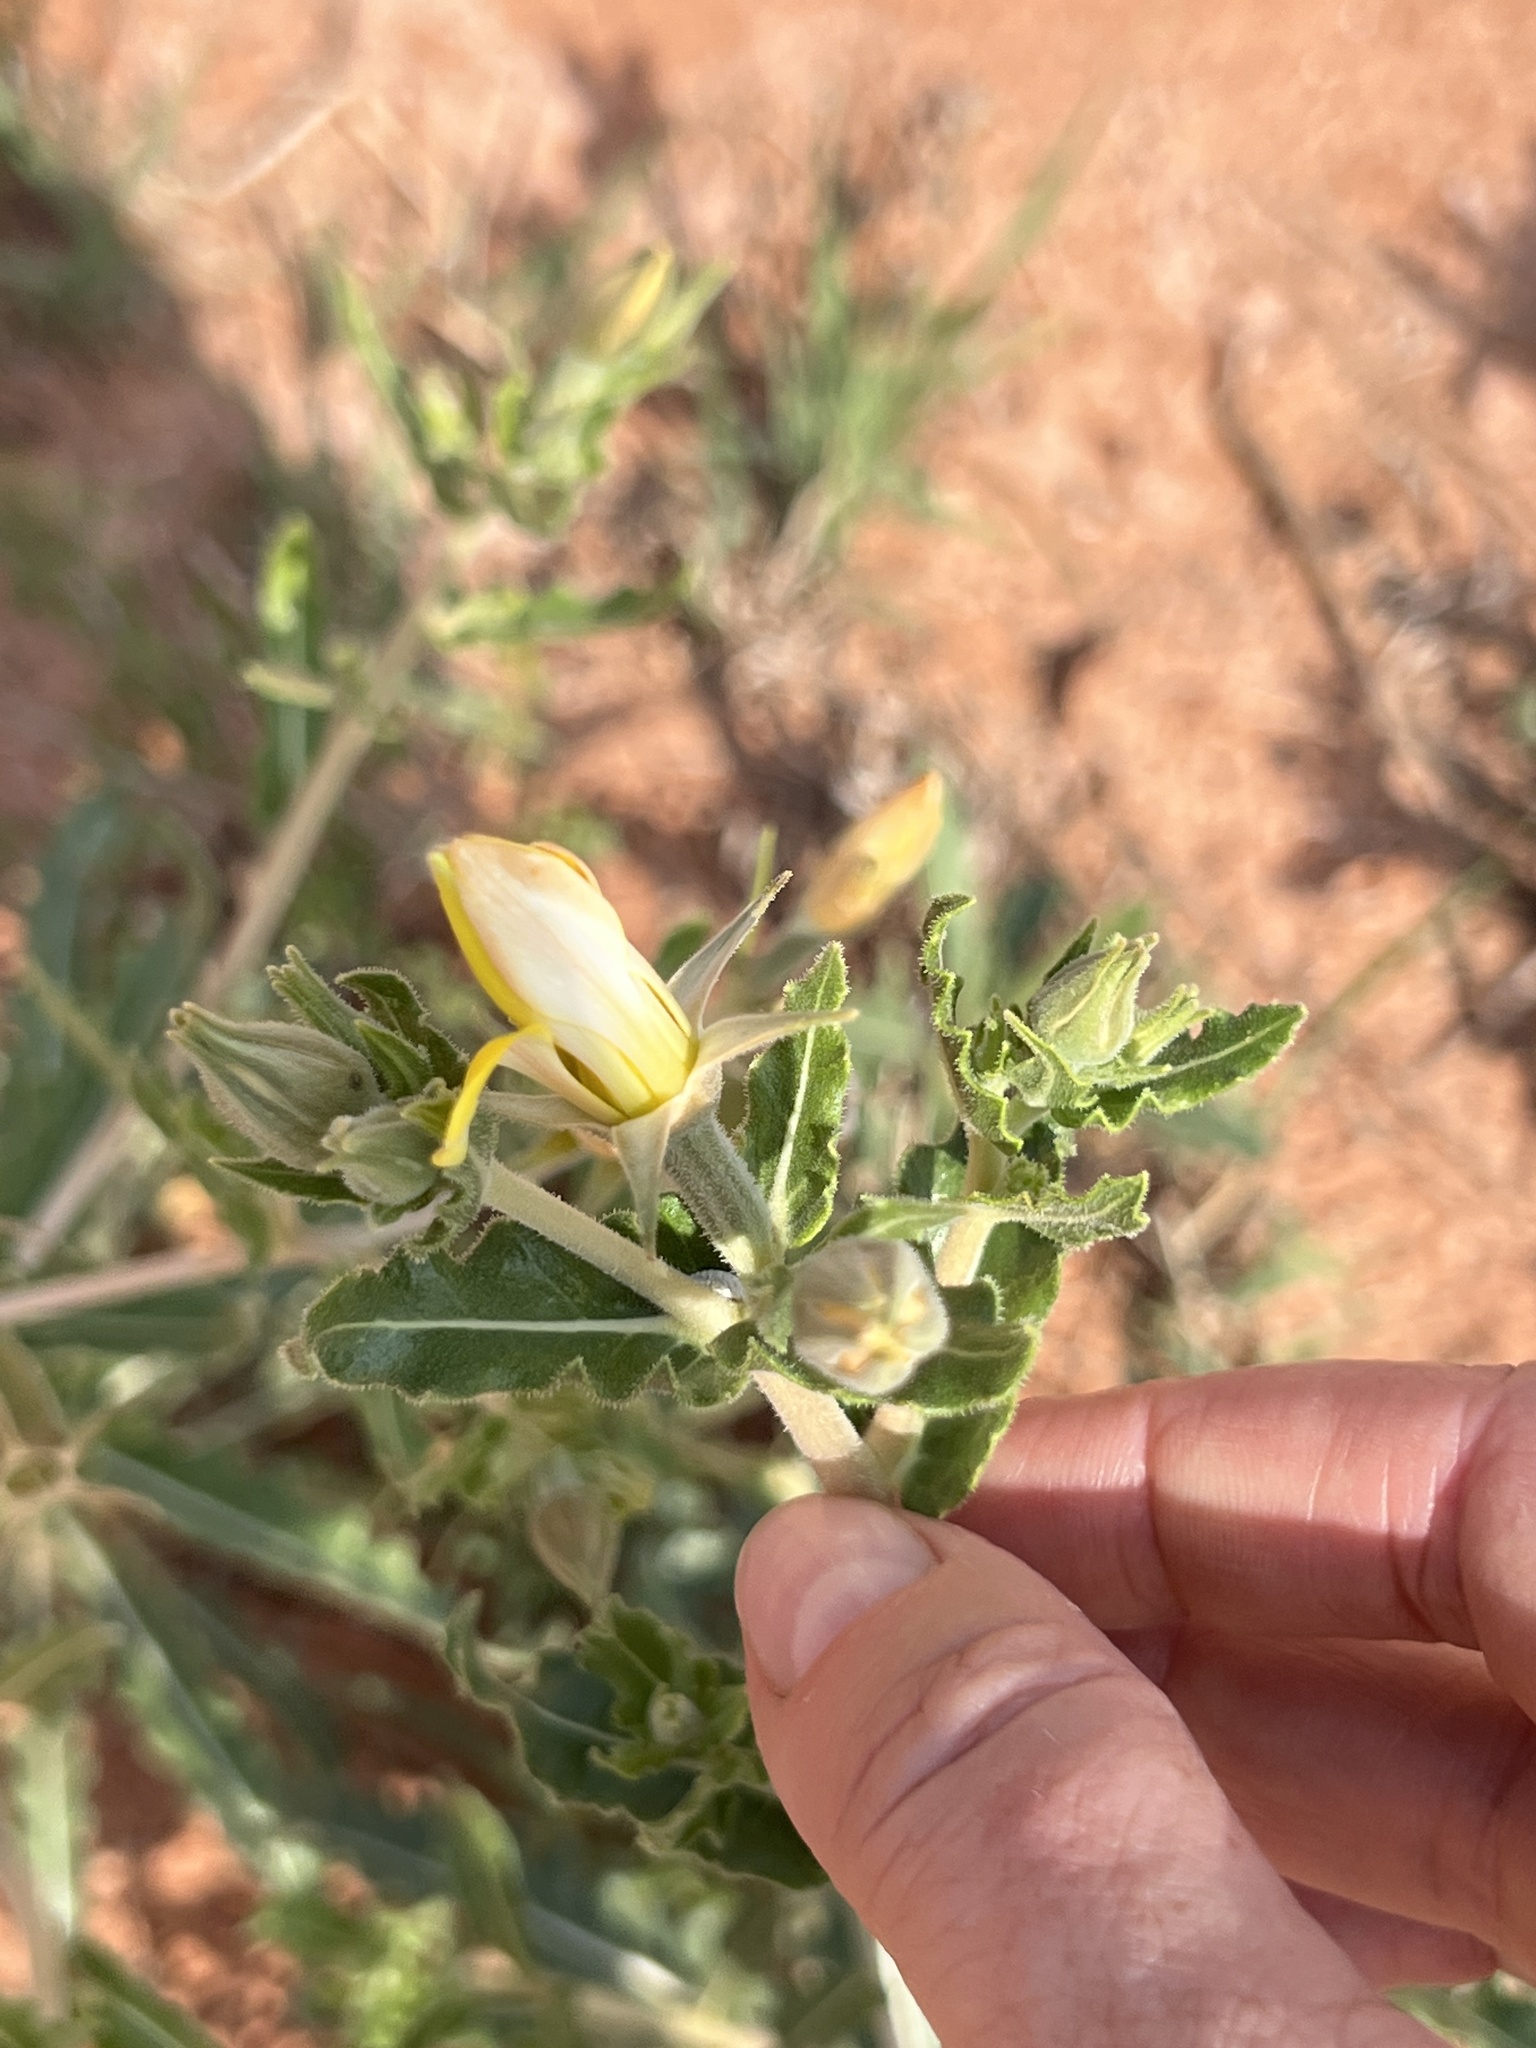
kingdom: Plantae
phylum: Tracheophyta
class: Magnoliopsida
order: Cornales
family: Loasaceae
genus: Mentzelia
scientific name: Mentzelia reverchonii
